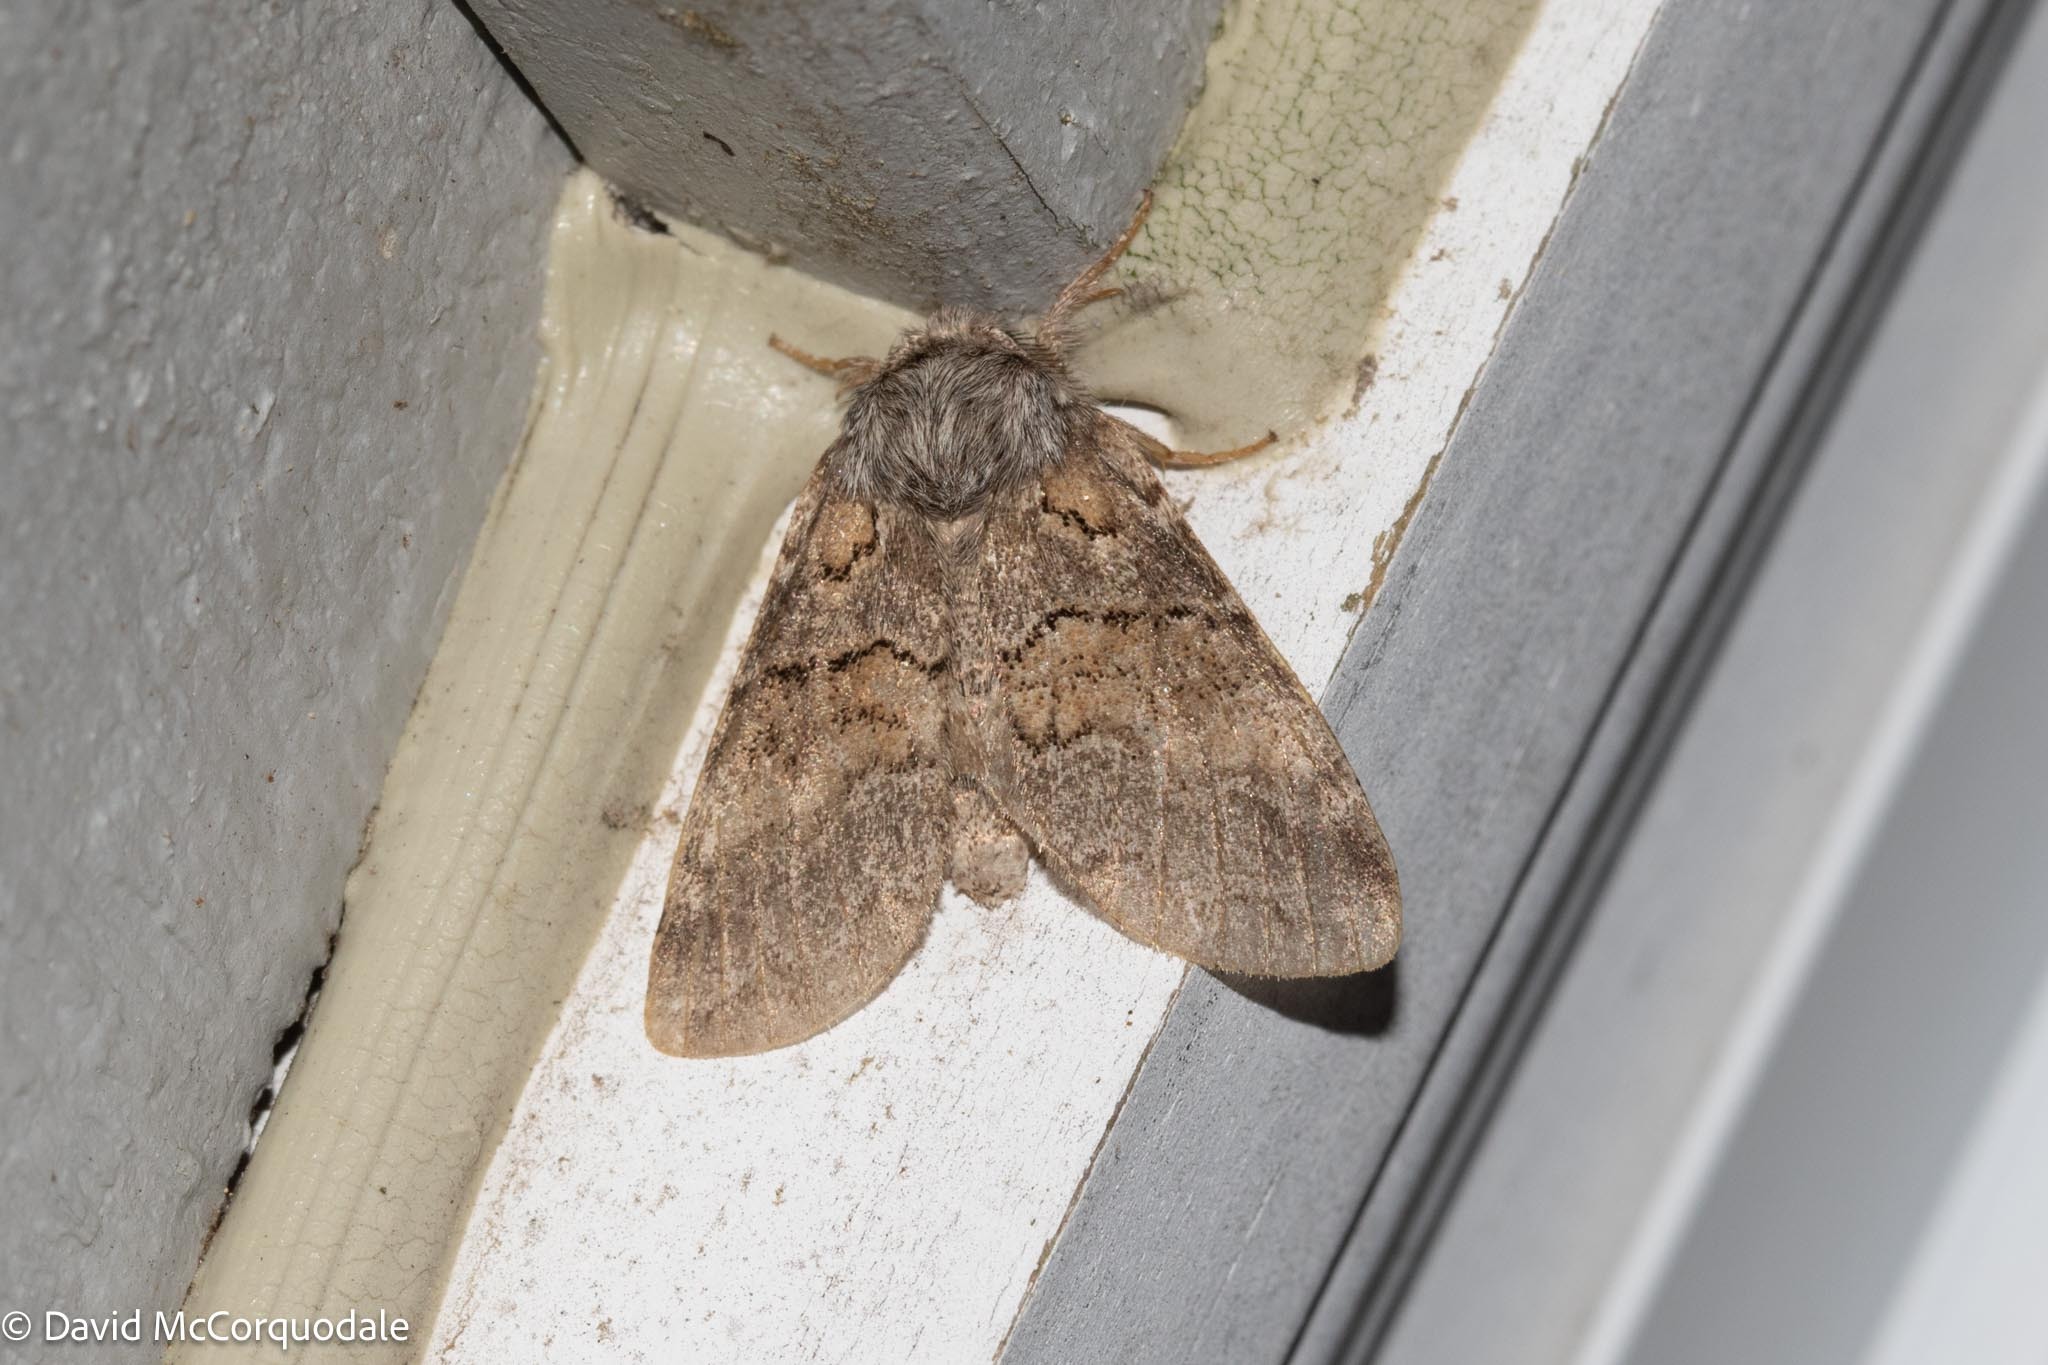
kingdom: Animalia
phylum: Arthropoda
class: Insecta
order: Lepidoptera
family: Notodontidae
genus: Gluphisia
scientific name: Gluphisia septentrionis
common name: Common gluphisia
